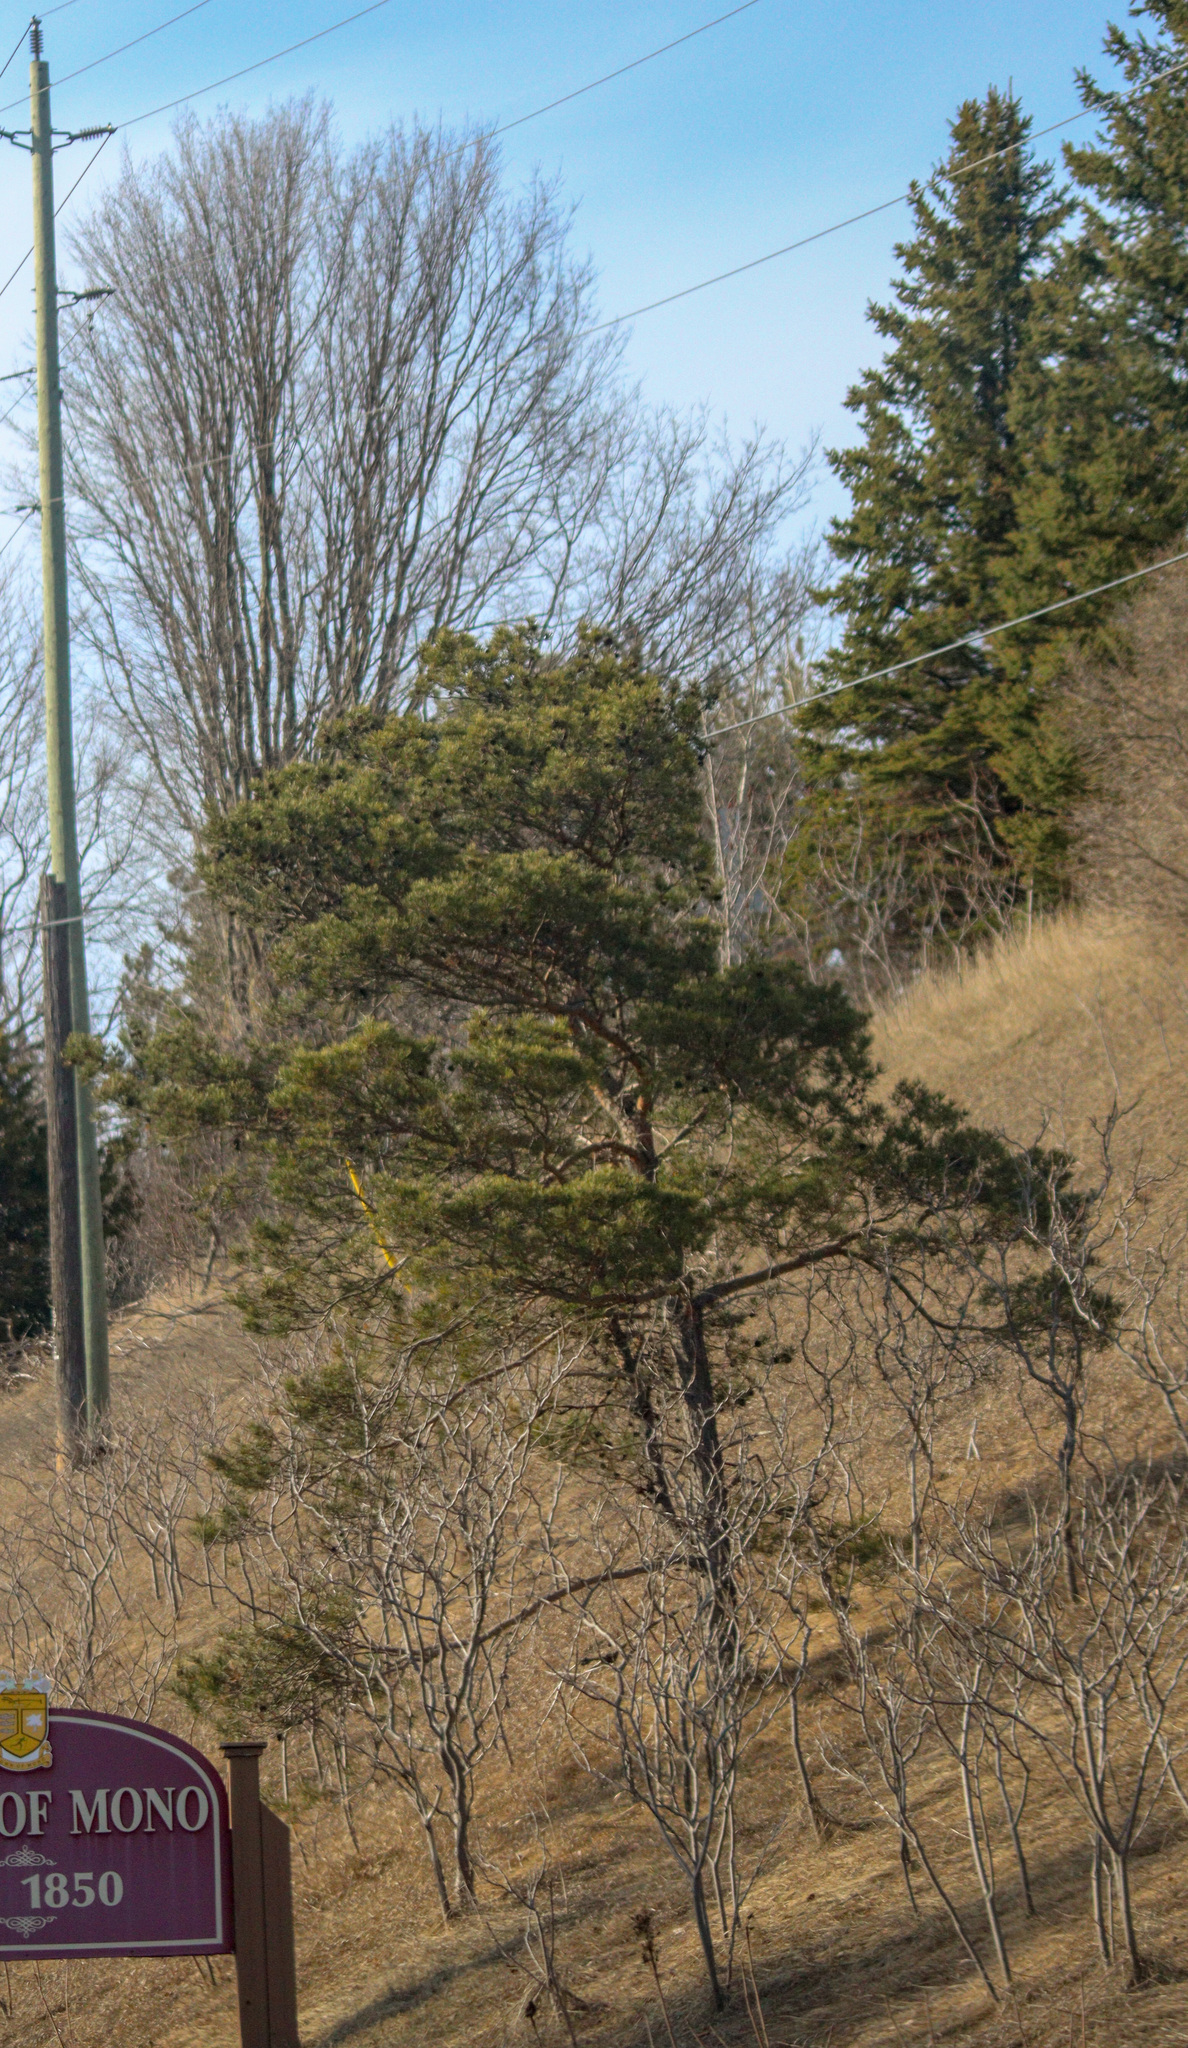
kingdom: Plantae
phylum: Tracheophyta
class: Pinopsida
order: Pinales
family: Pinaceae
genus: Pinus
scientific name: Pinus sylvestris
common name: Scots pine
